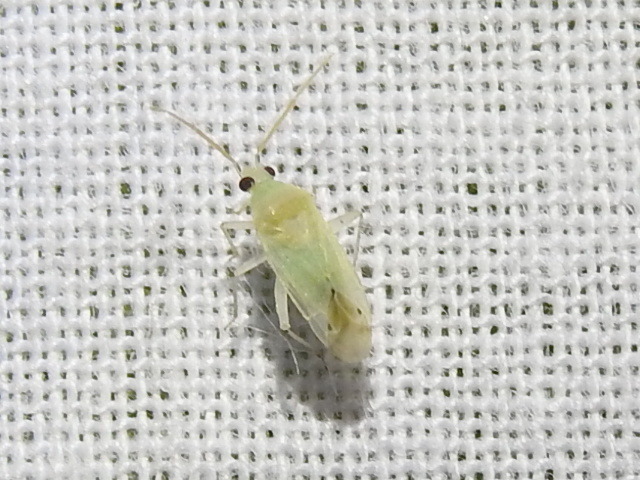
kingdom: Animalia
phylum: Arthropoda
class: Insecta
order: Hemiptera
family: Miridae
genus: Americodema
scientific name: Americodema nigrolineatum
